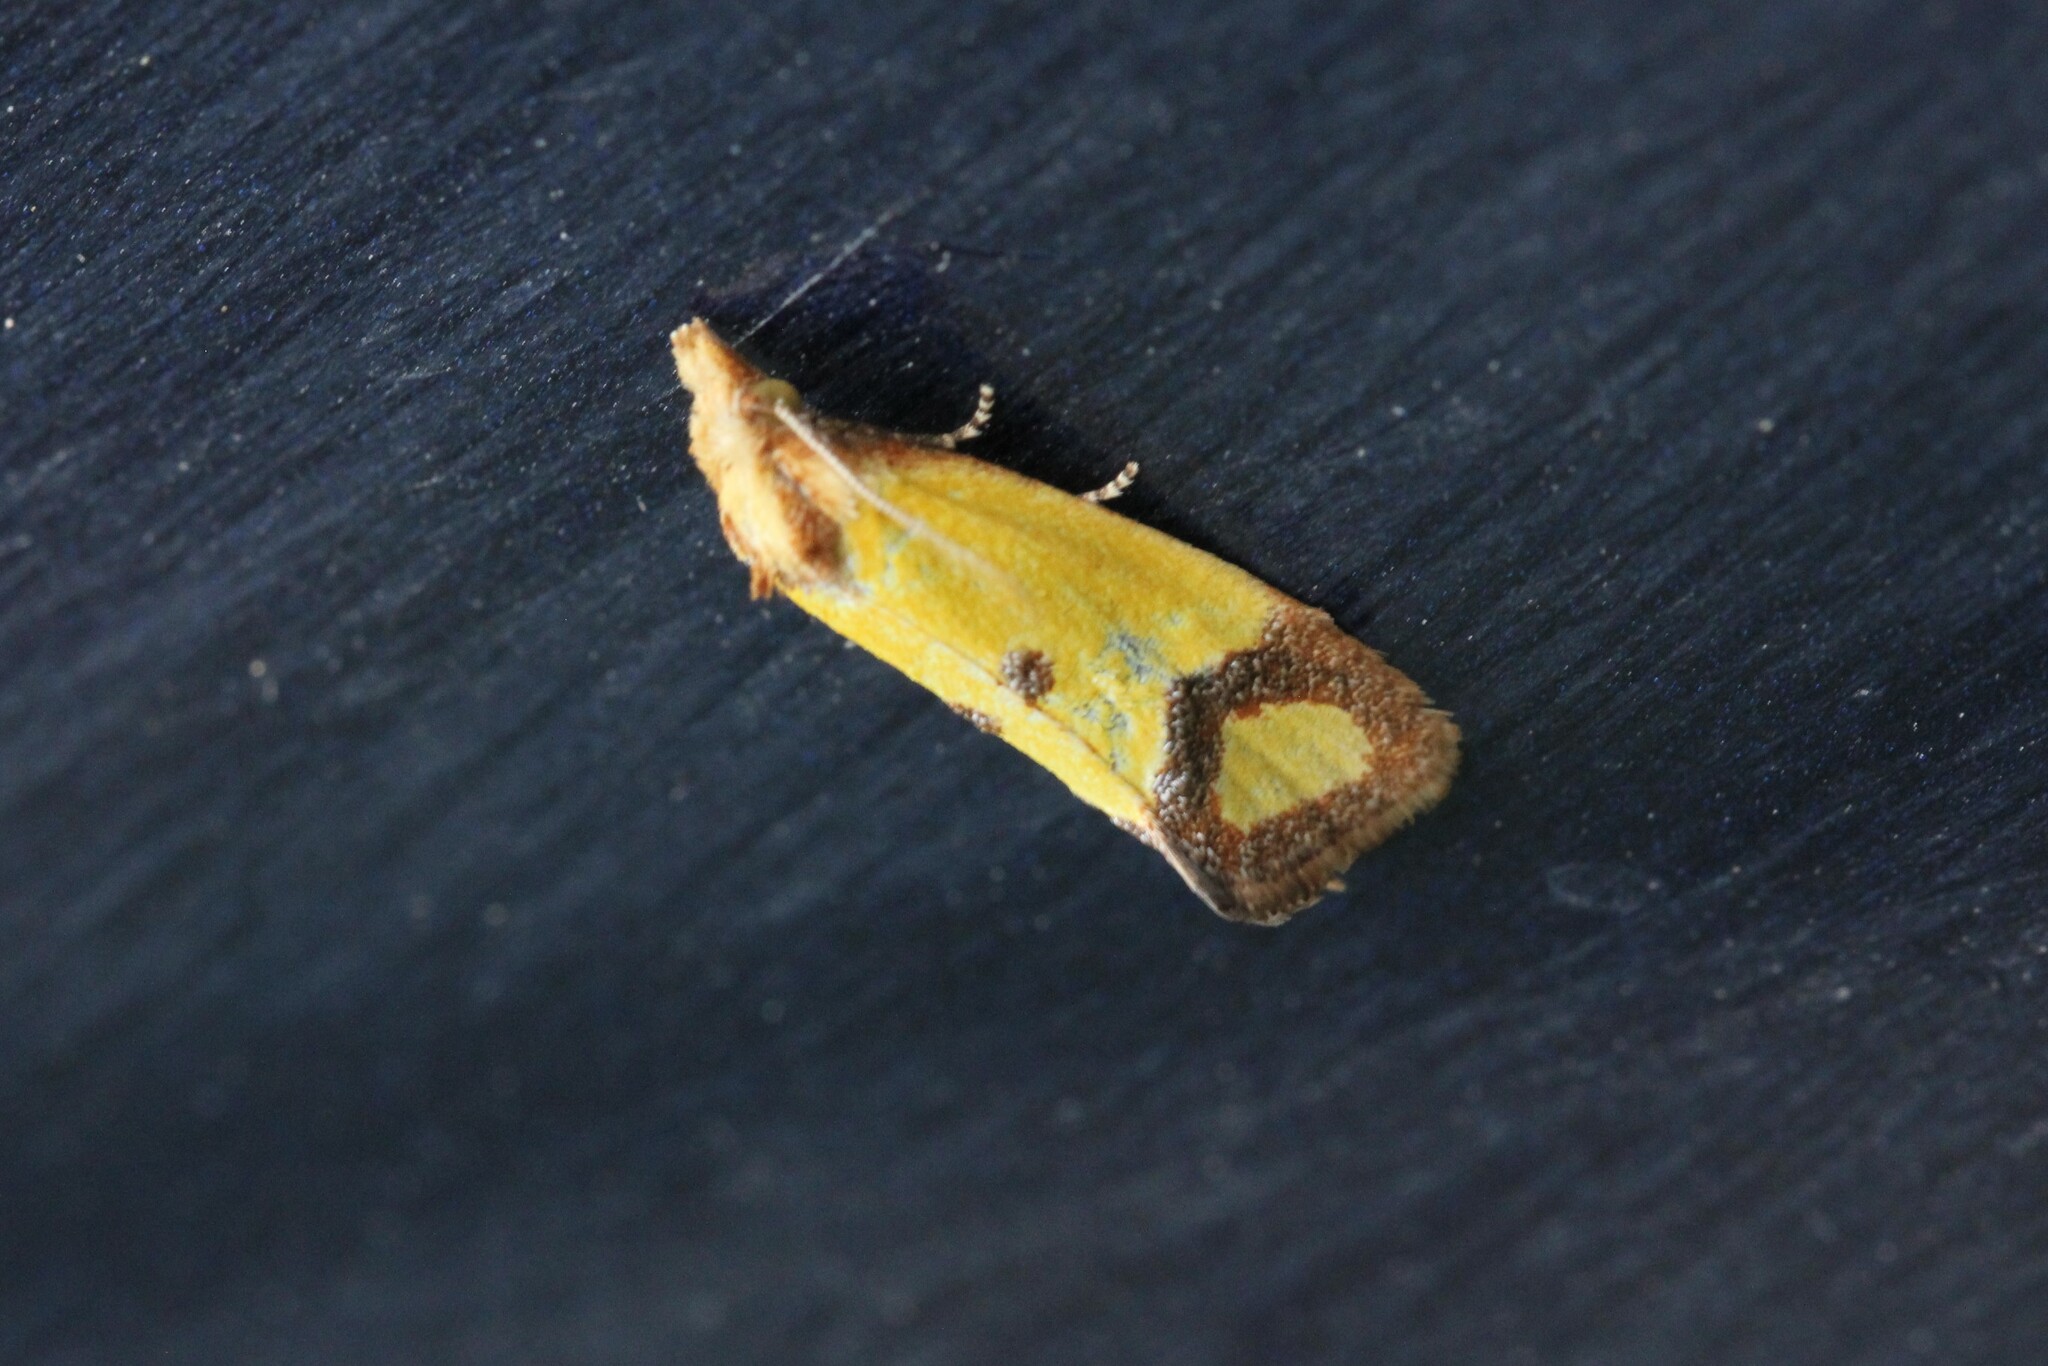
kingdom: Animalia
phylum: Arthropoda
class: Insecta
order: Lepidoptera
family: Tortricidae
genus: Agapeta
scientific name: Agapeta zoegana
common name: Sulfur knapweed root moth
